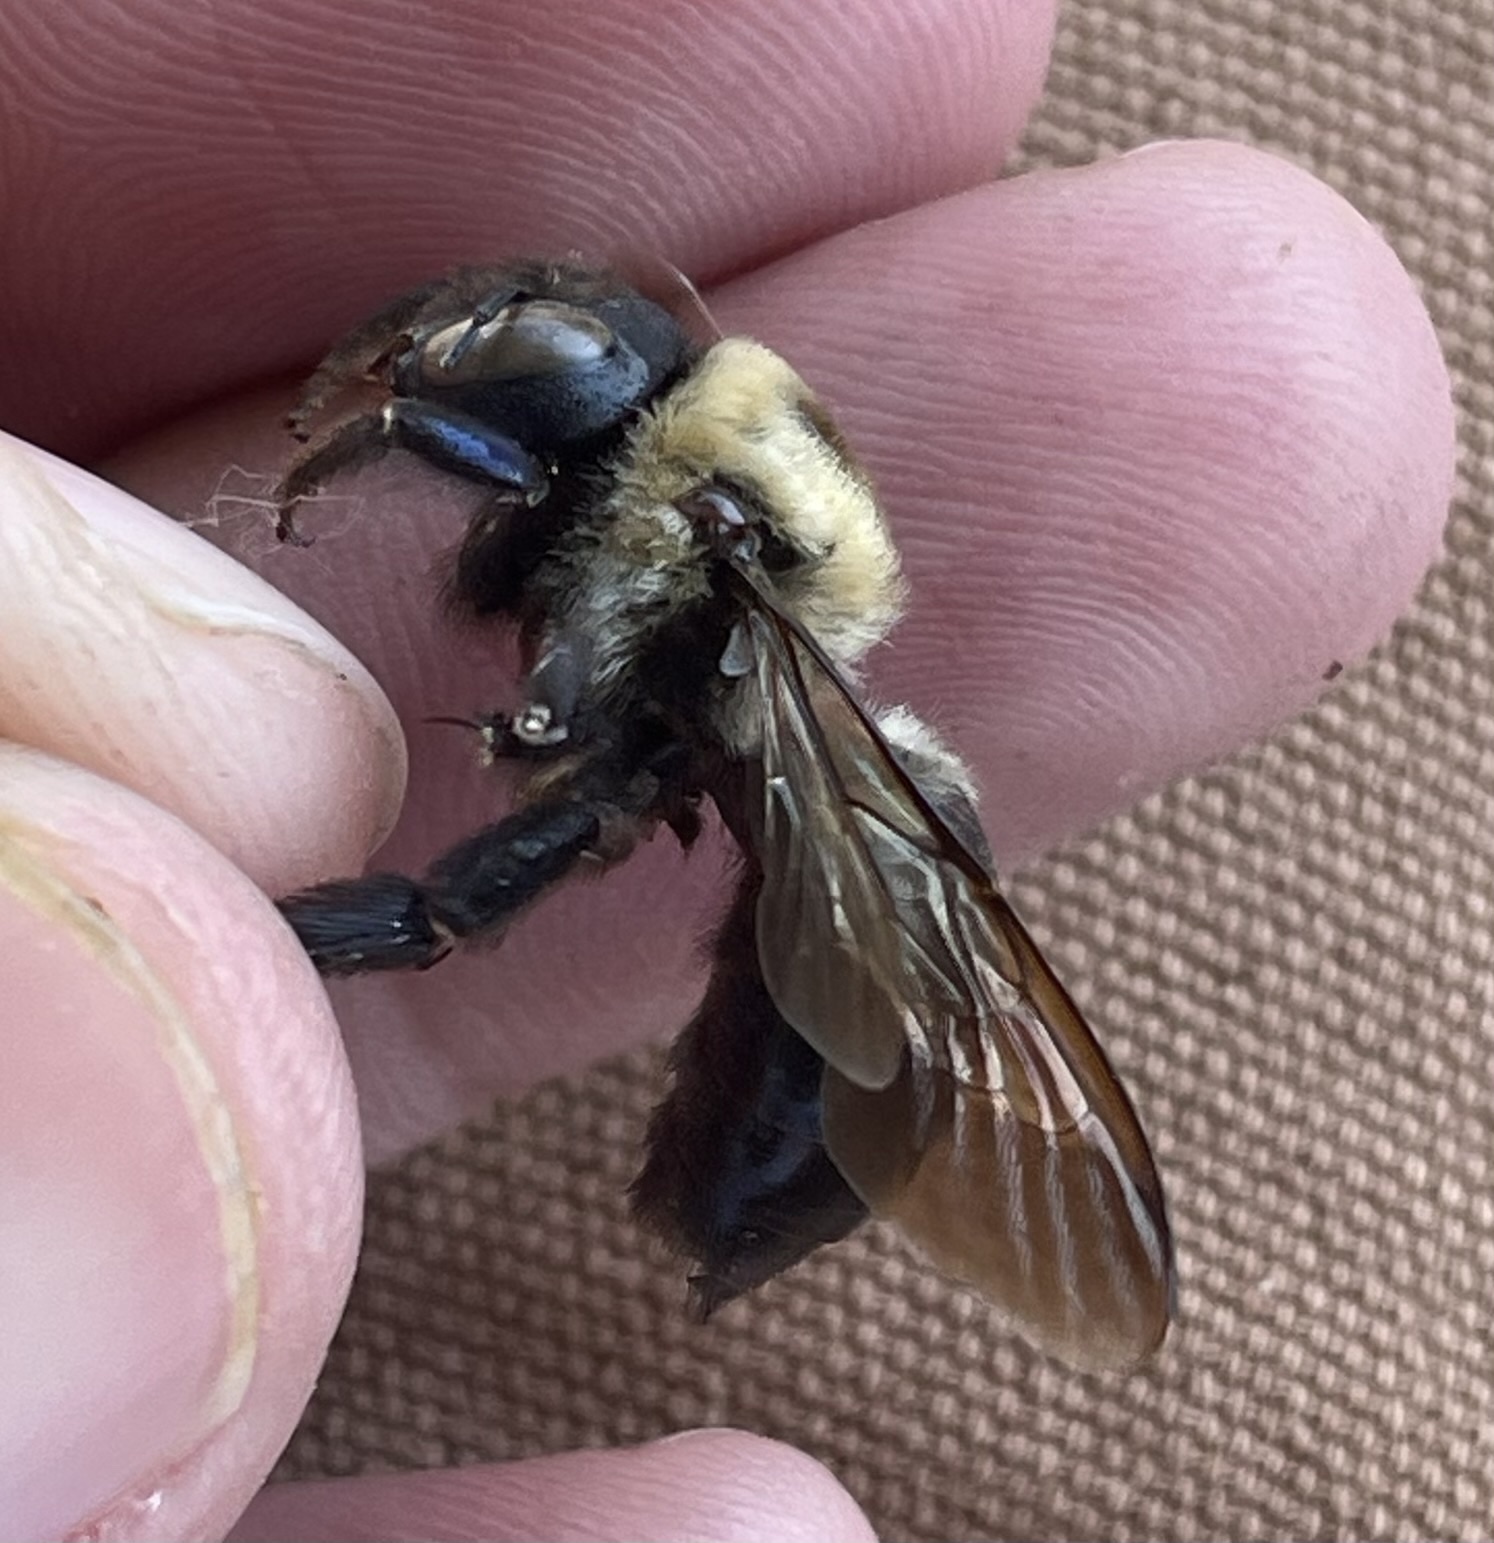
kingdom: Animalia
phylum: Arthropoda
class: Insecta
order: Hymenoptera
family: Apidae
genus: Xylocopa
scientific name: Xylocopa virginica
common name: Carpenter bee
